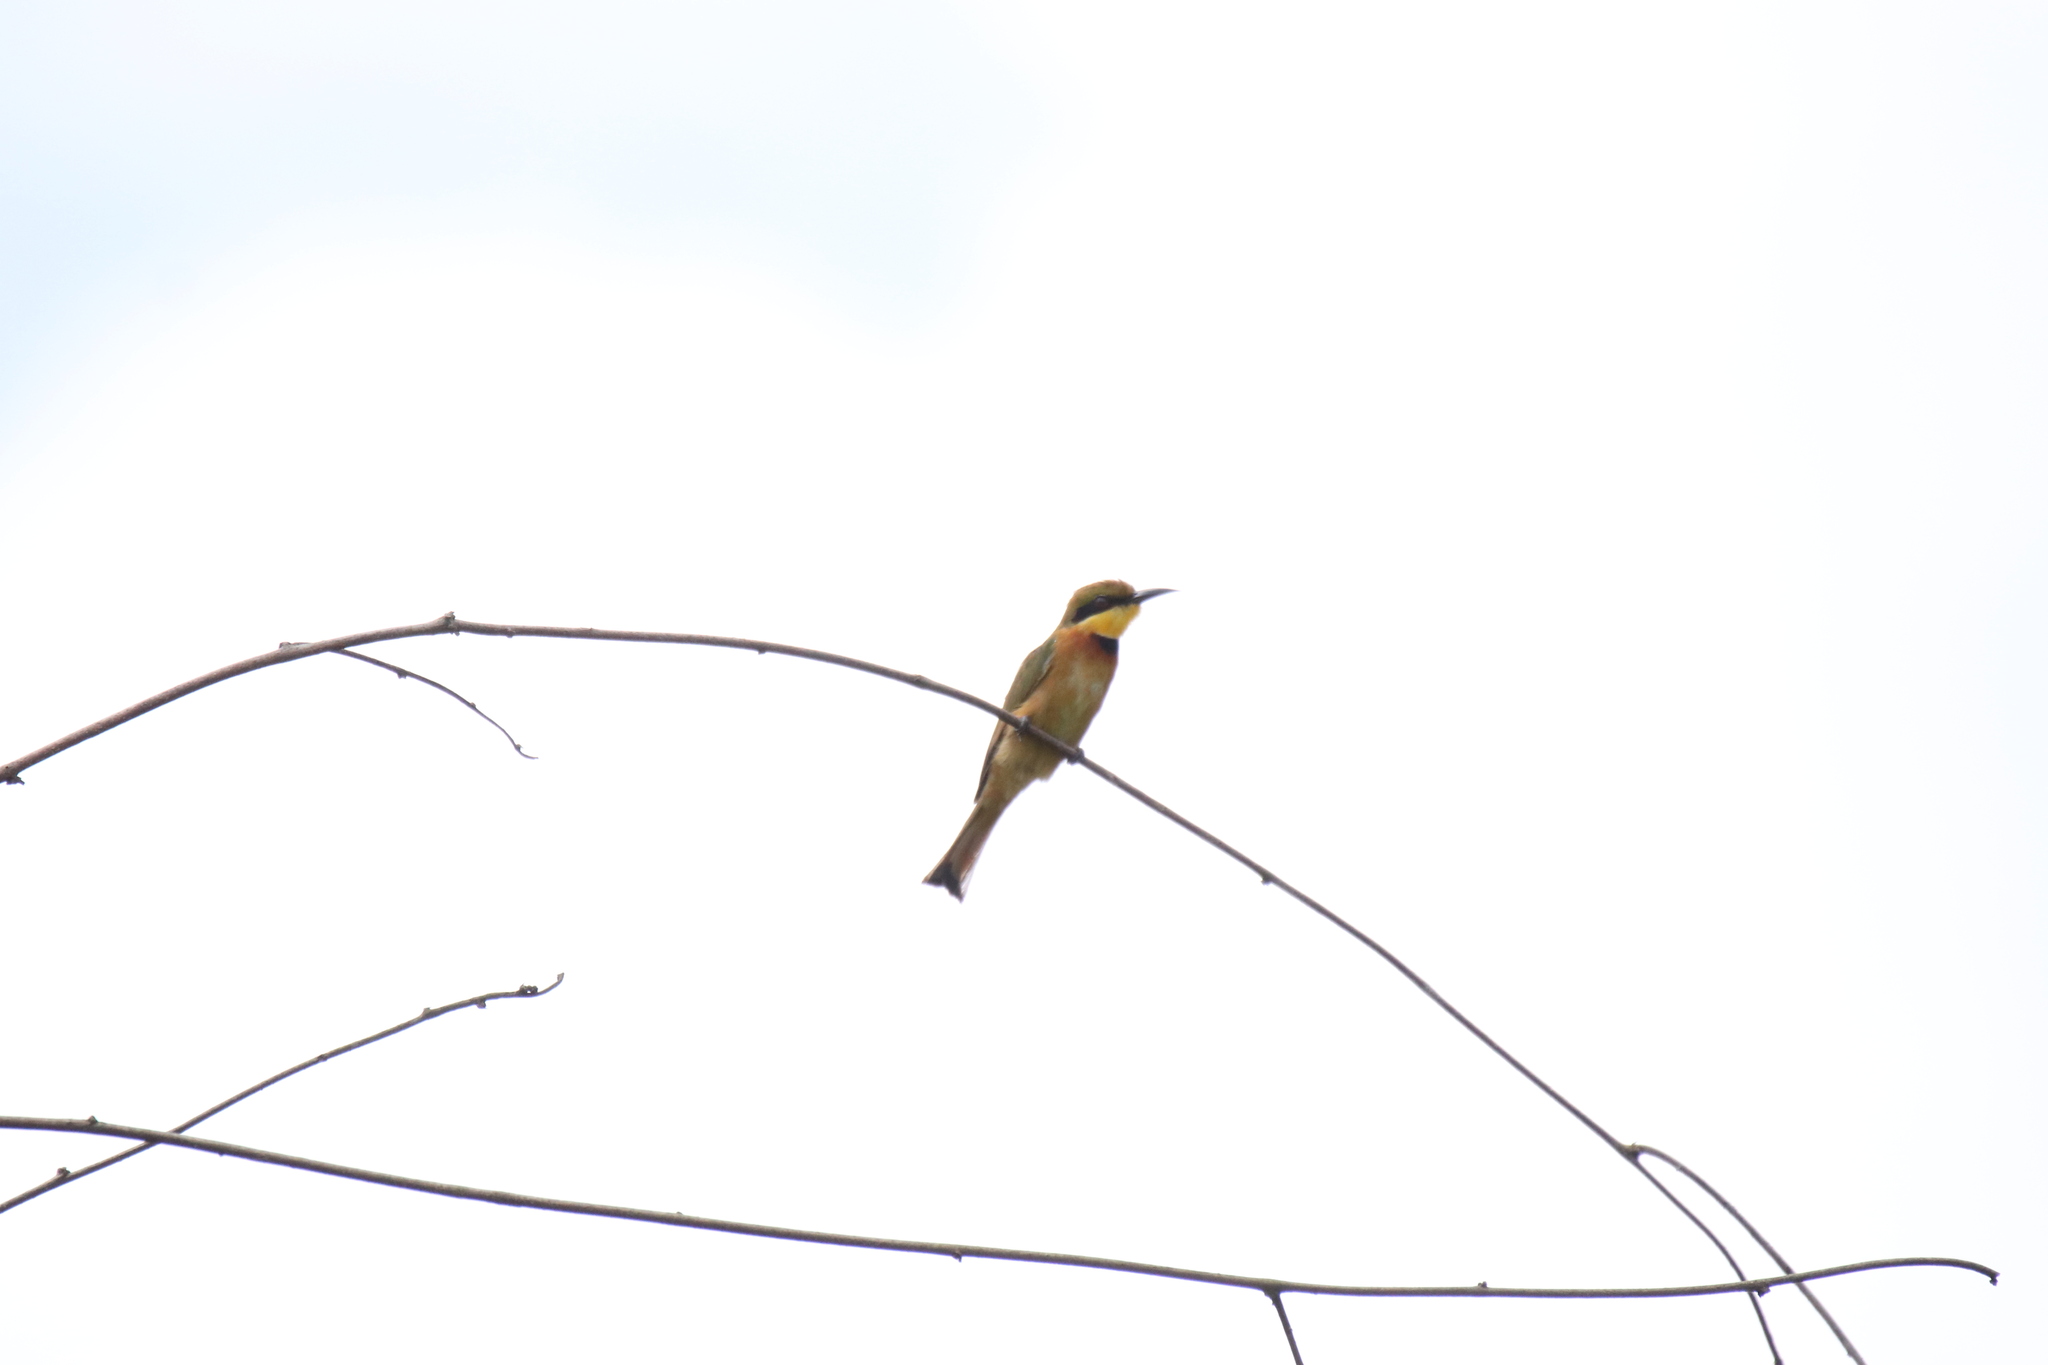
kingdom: Animalia
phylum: Chordata
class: Aves
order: Coraciiformes
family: Meropidae
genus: Merops
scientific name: Merops pusillus
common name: Little bee-eater
